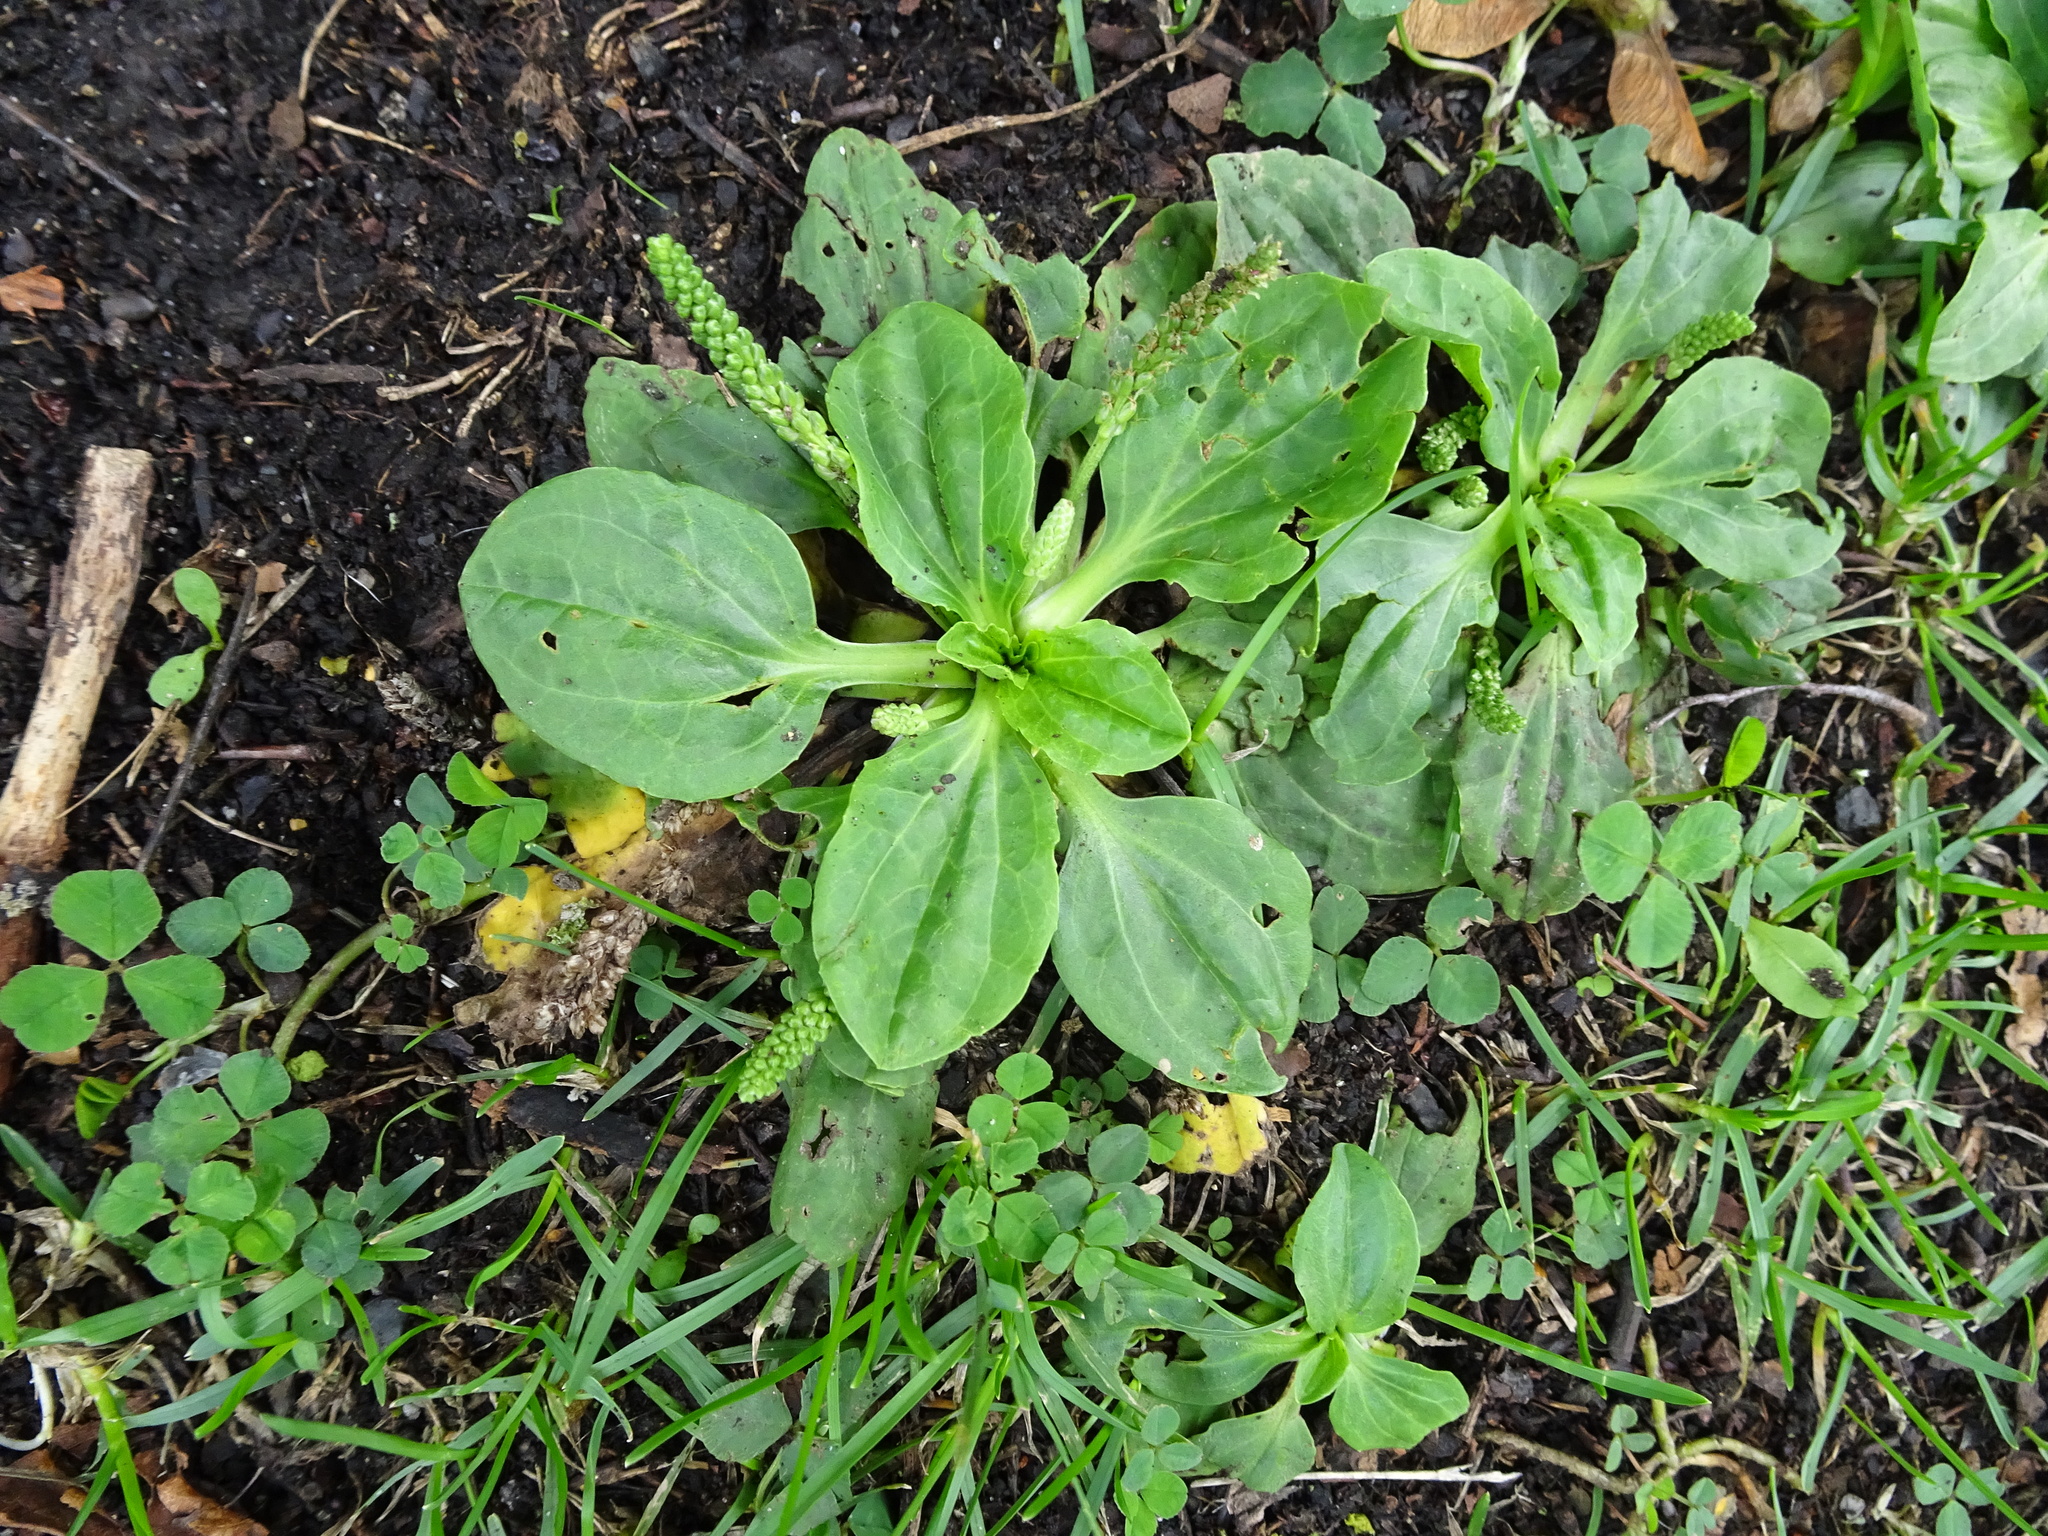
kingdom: Plantae
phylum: Tracheophyta
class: Magnoliopsida
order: Lamiales
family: Plantaginaceae
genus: Plantago
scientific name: Plantago major
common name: Common plantain
